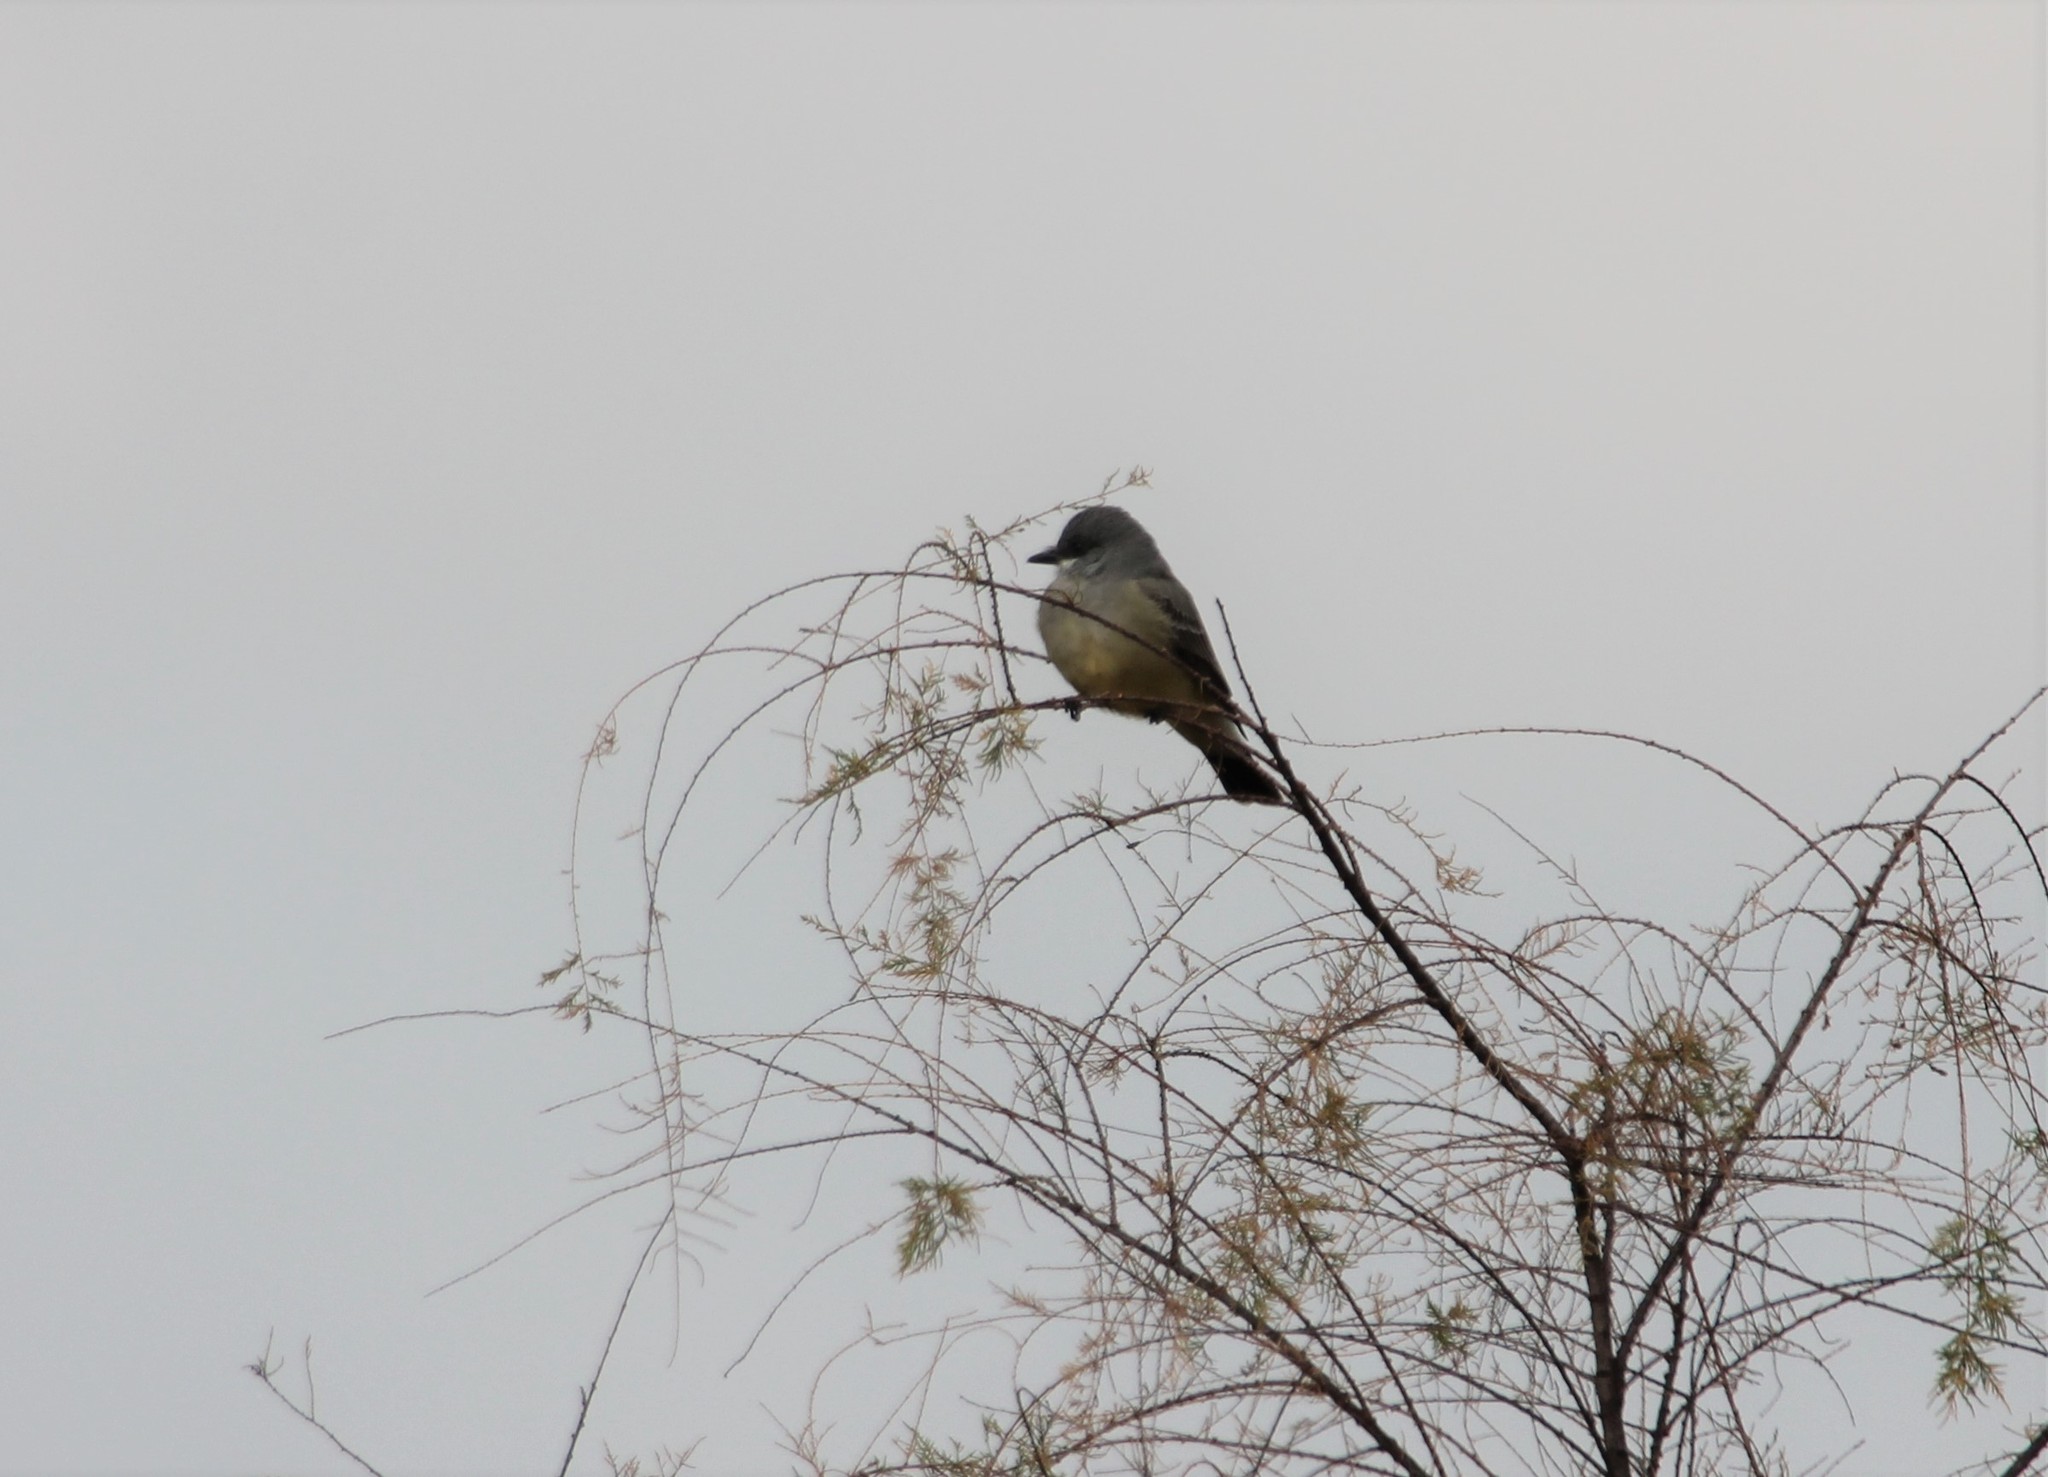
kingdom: Animalia
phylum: Chordata
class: Aves
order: Passeriformes
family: Tyrannidae
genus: Tyrannus
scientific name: Tyrannus vociferans
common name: Cassin's kingbird
